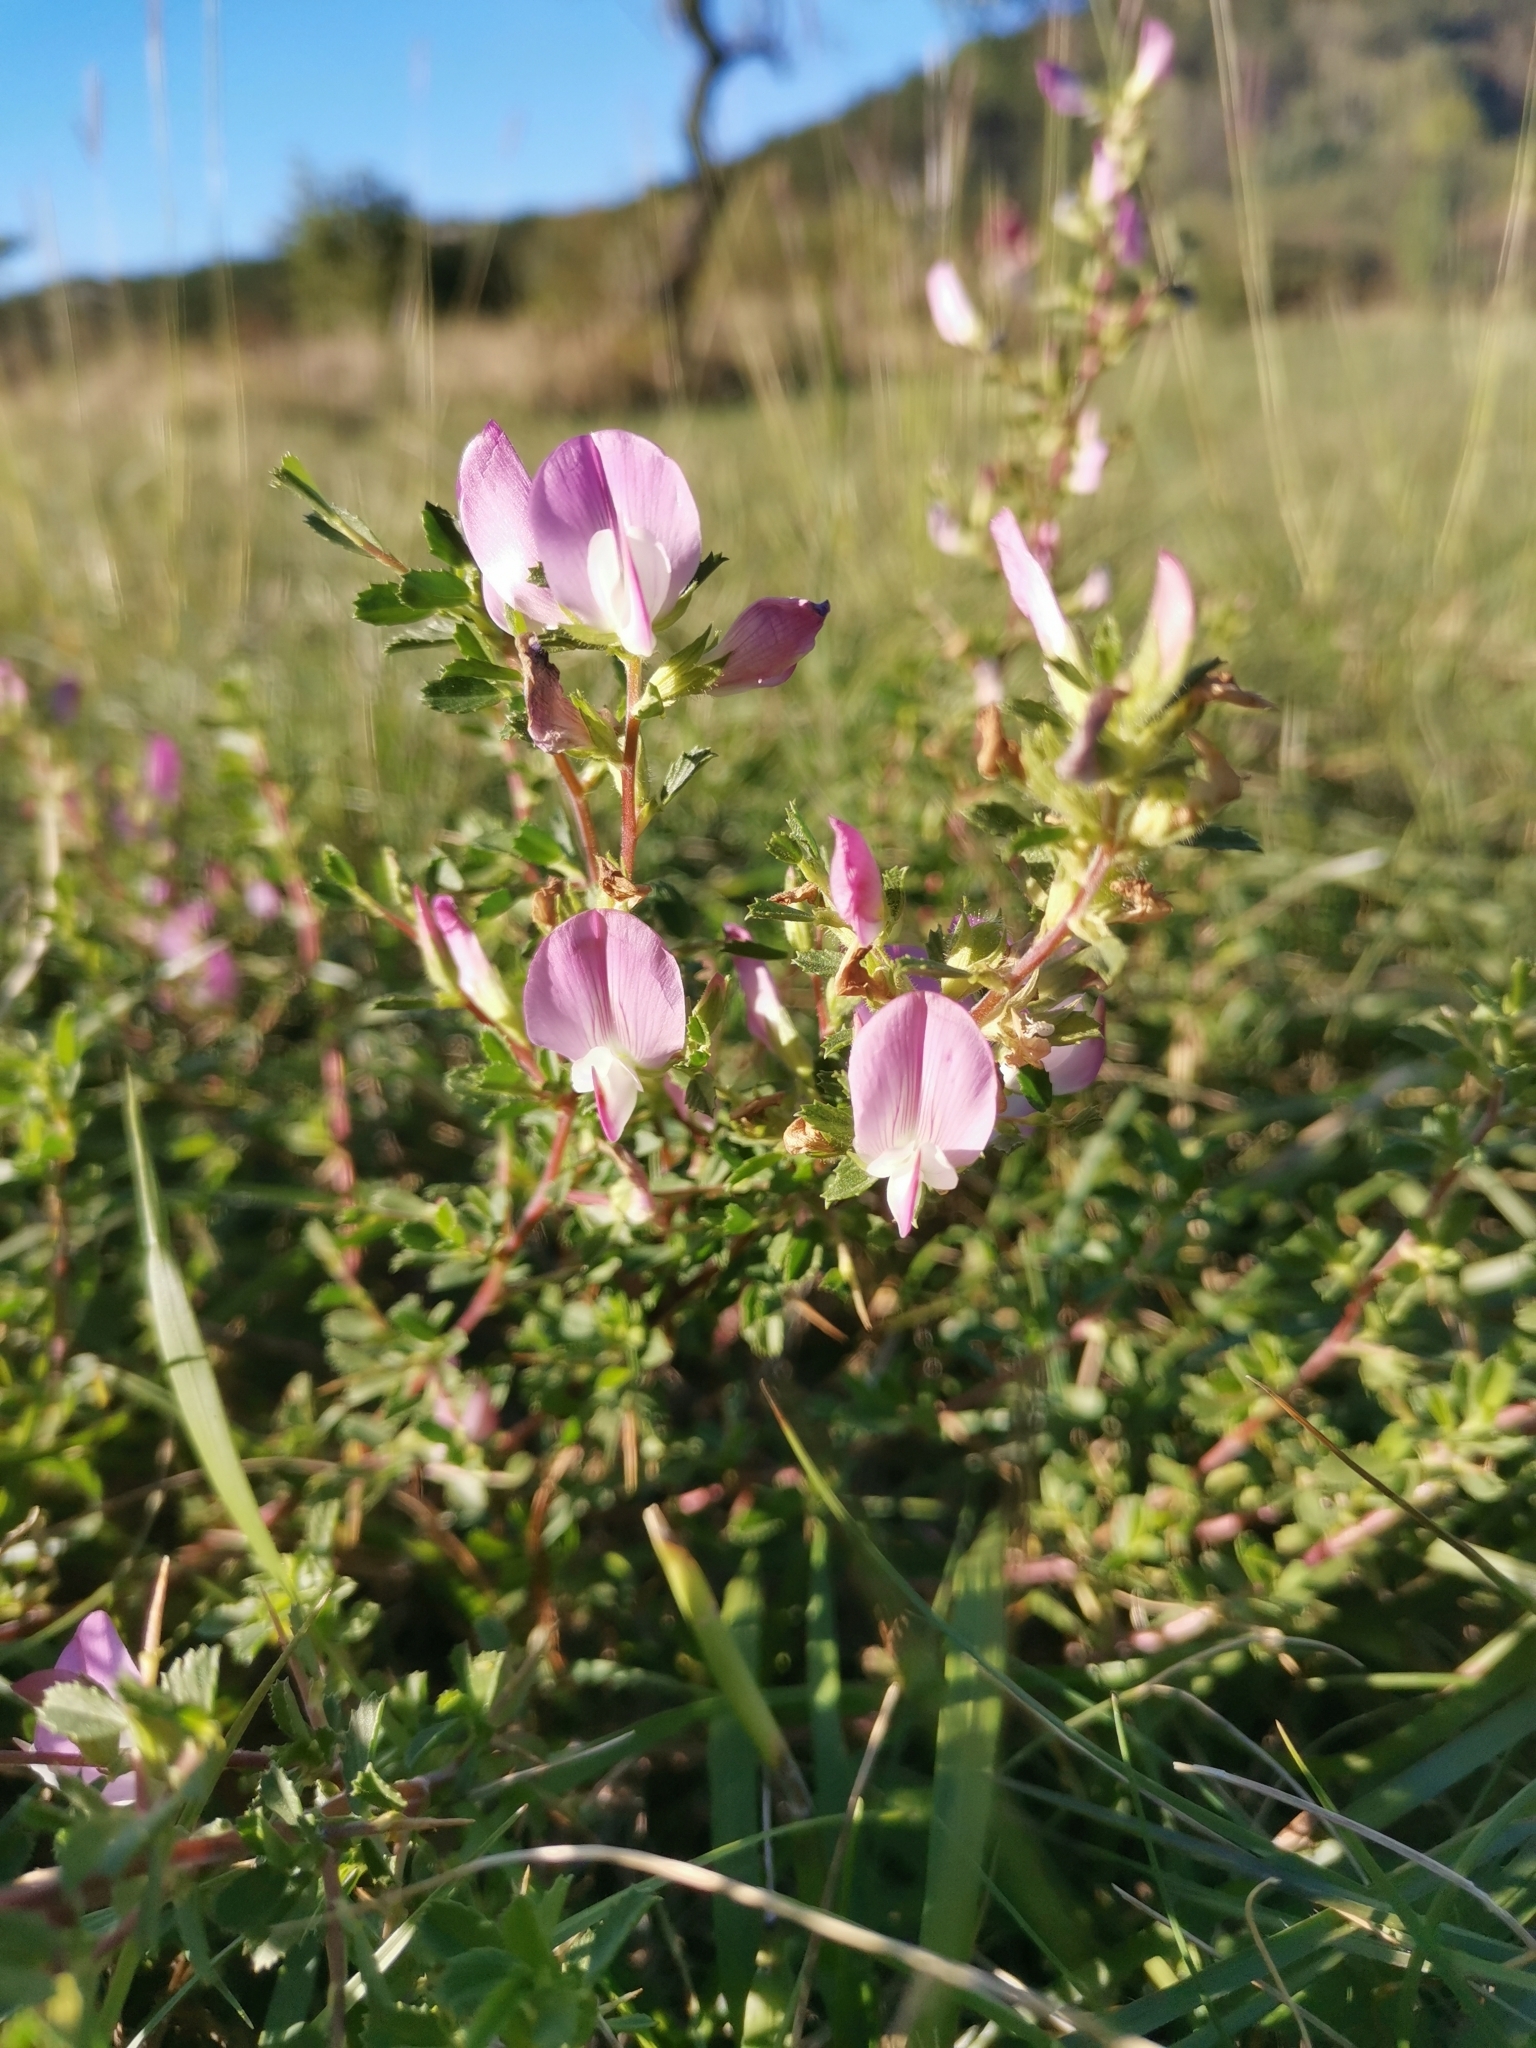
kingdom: Plantae
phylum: Tracheophyta
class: Magnoliopsida
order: Fabales
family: Fabaceae
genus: Ononis
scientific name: Ononis spinosa
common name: Spiny restharrow
